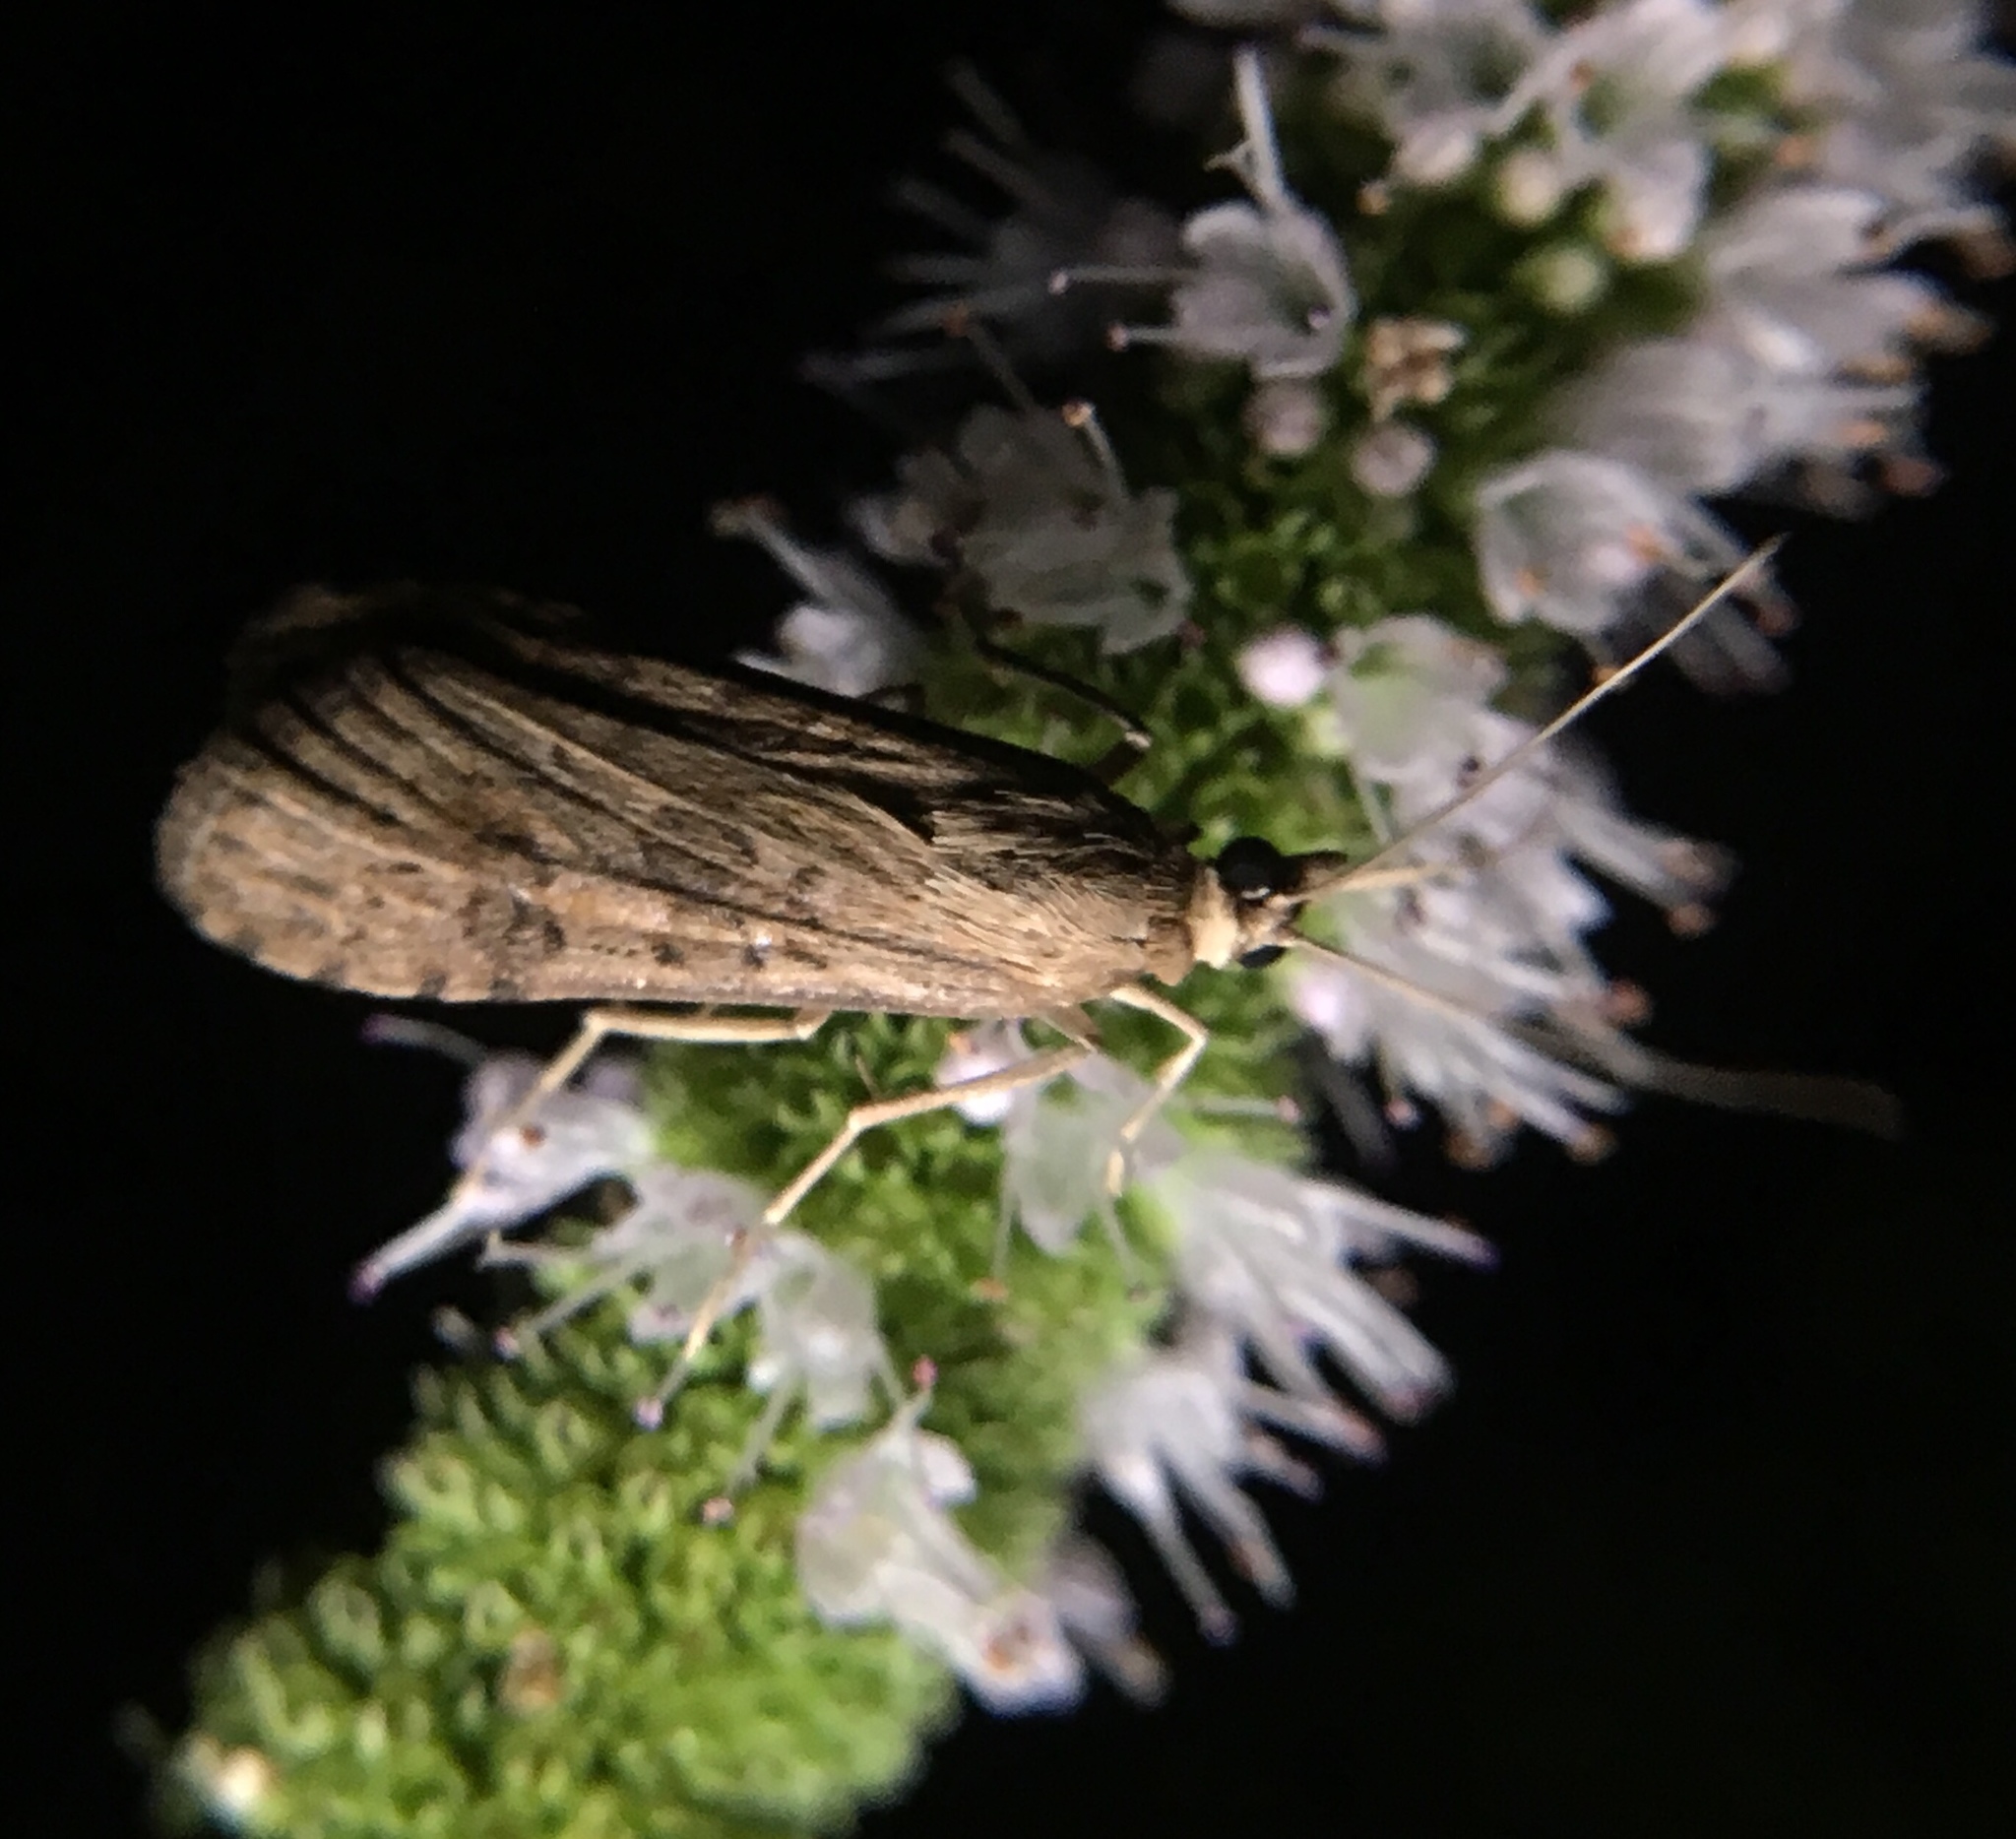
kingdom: Animalia
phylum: Arthropoda
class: Insecta
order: Lepidoptera
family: Crambidae
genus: Nomophila
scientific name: Nomophila nearctica
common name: American rush veneer
